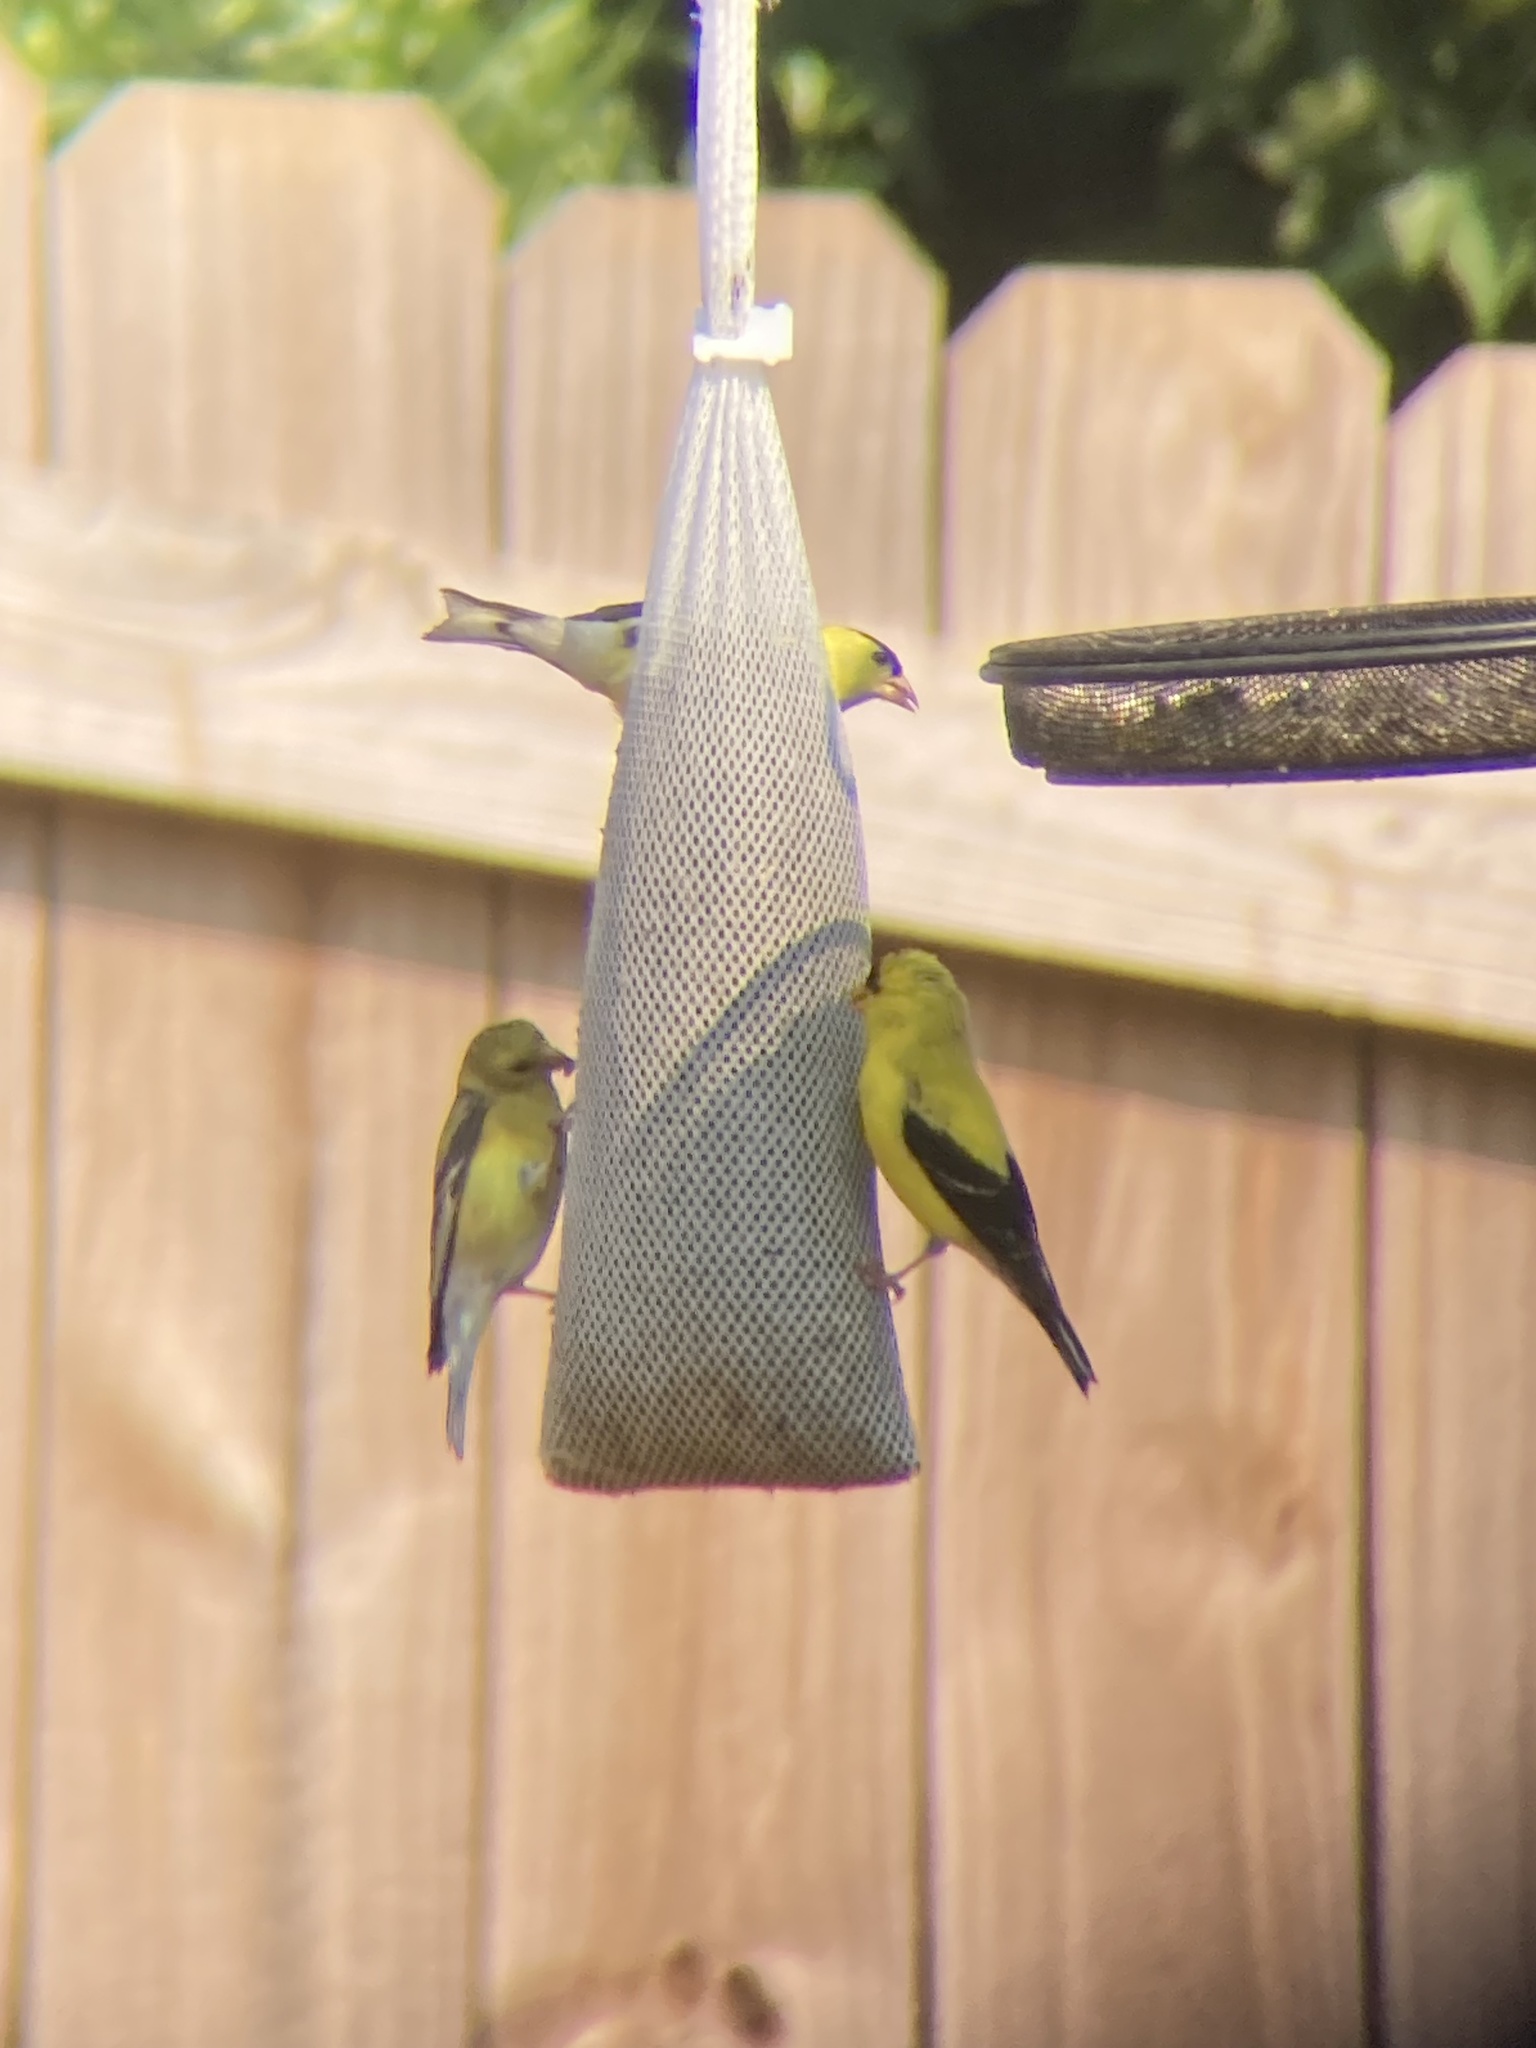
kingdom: Animalia
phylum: Chordata
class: Aves
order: Passeriformes
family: Fringillidae
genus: Spinus
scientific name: Spinus tristis
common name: American goldfinch
